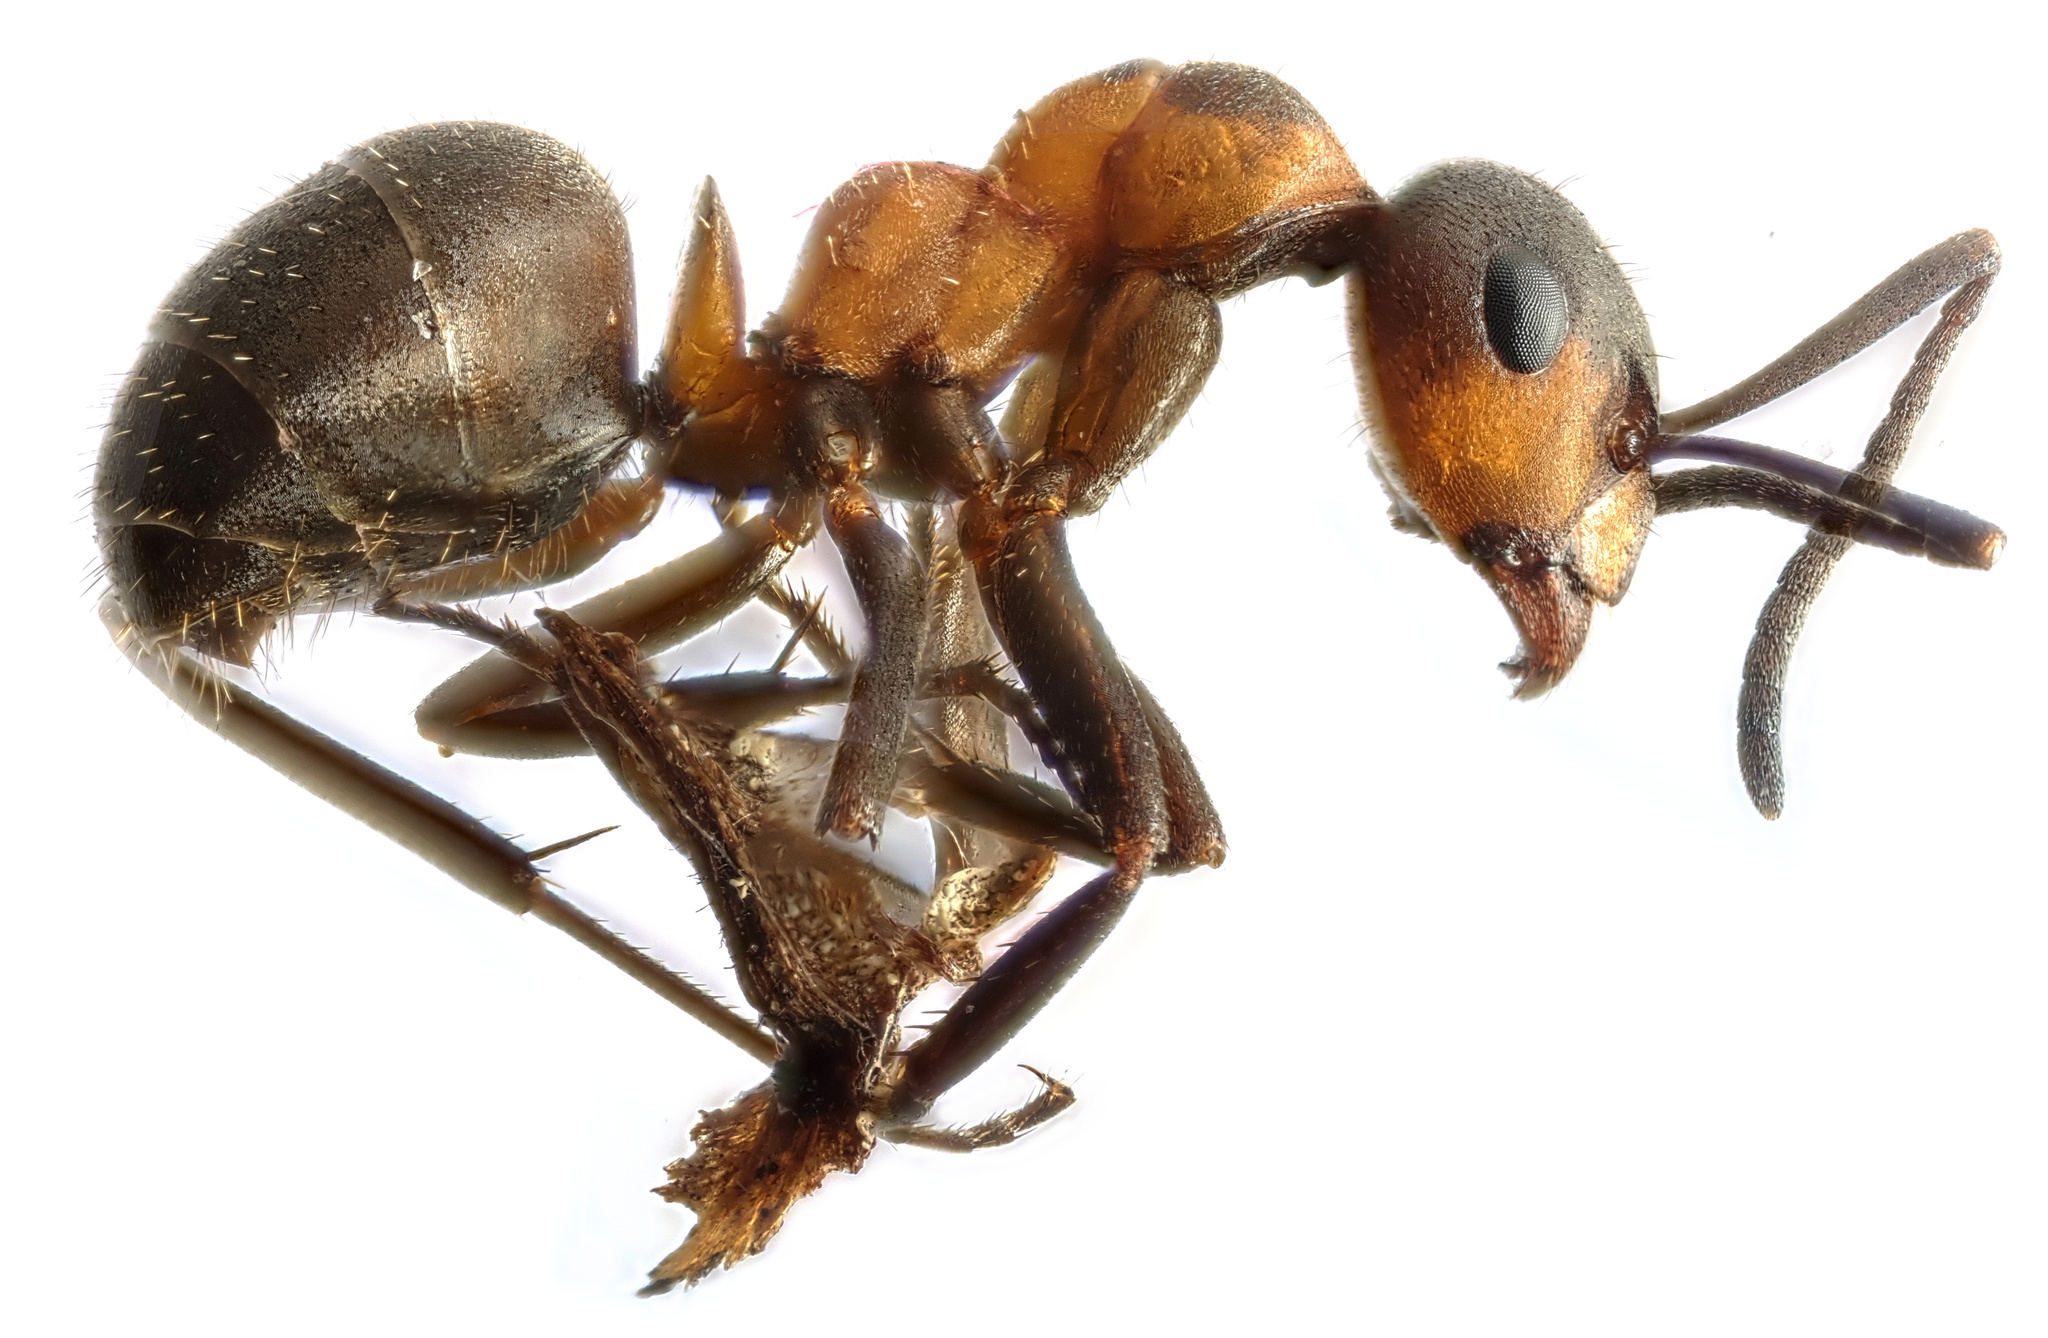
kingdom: Animalia
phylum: Arthropoda
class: Insecta
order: Hymenoptera
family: Formicidae
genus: Formica
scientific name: Formica rufa
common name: Red wood ant
